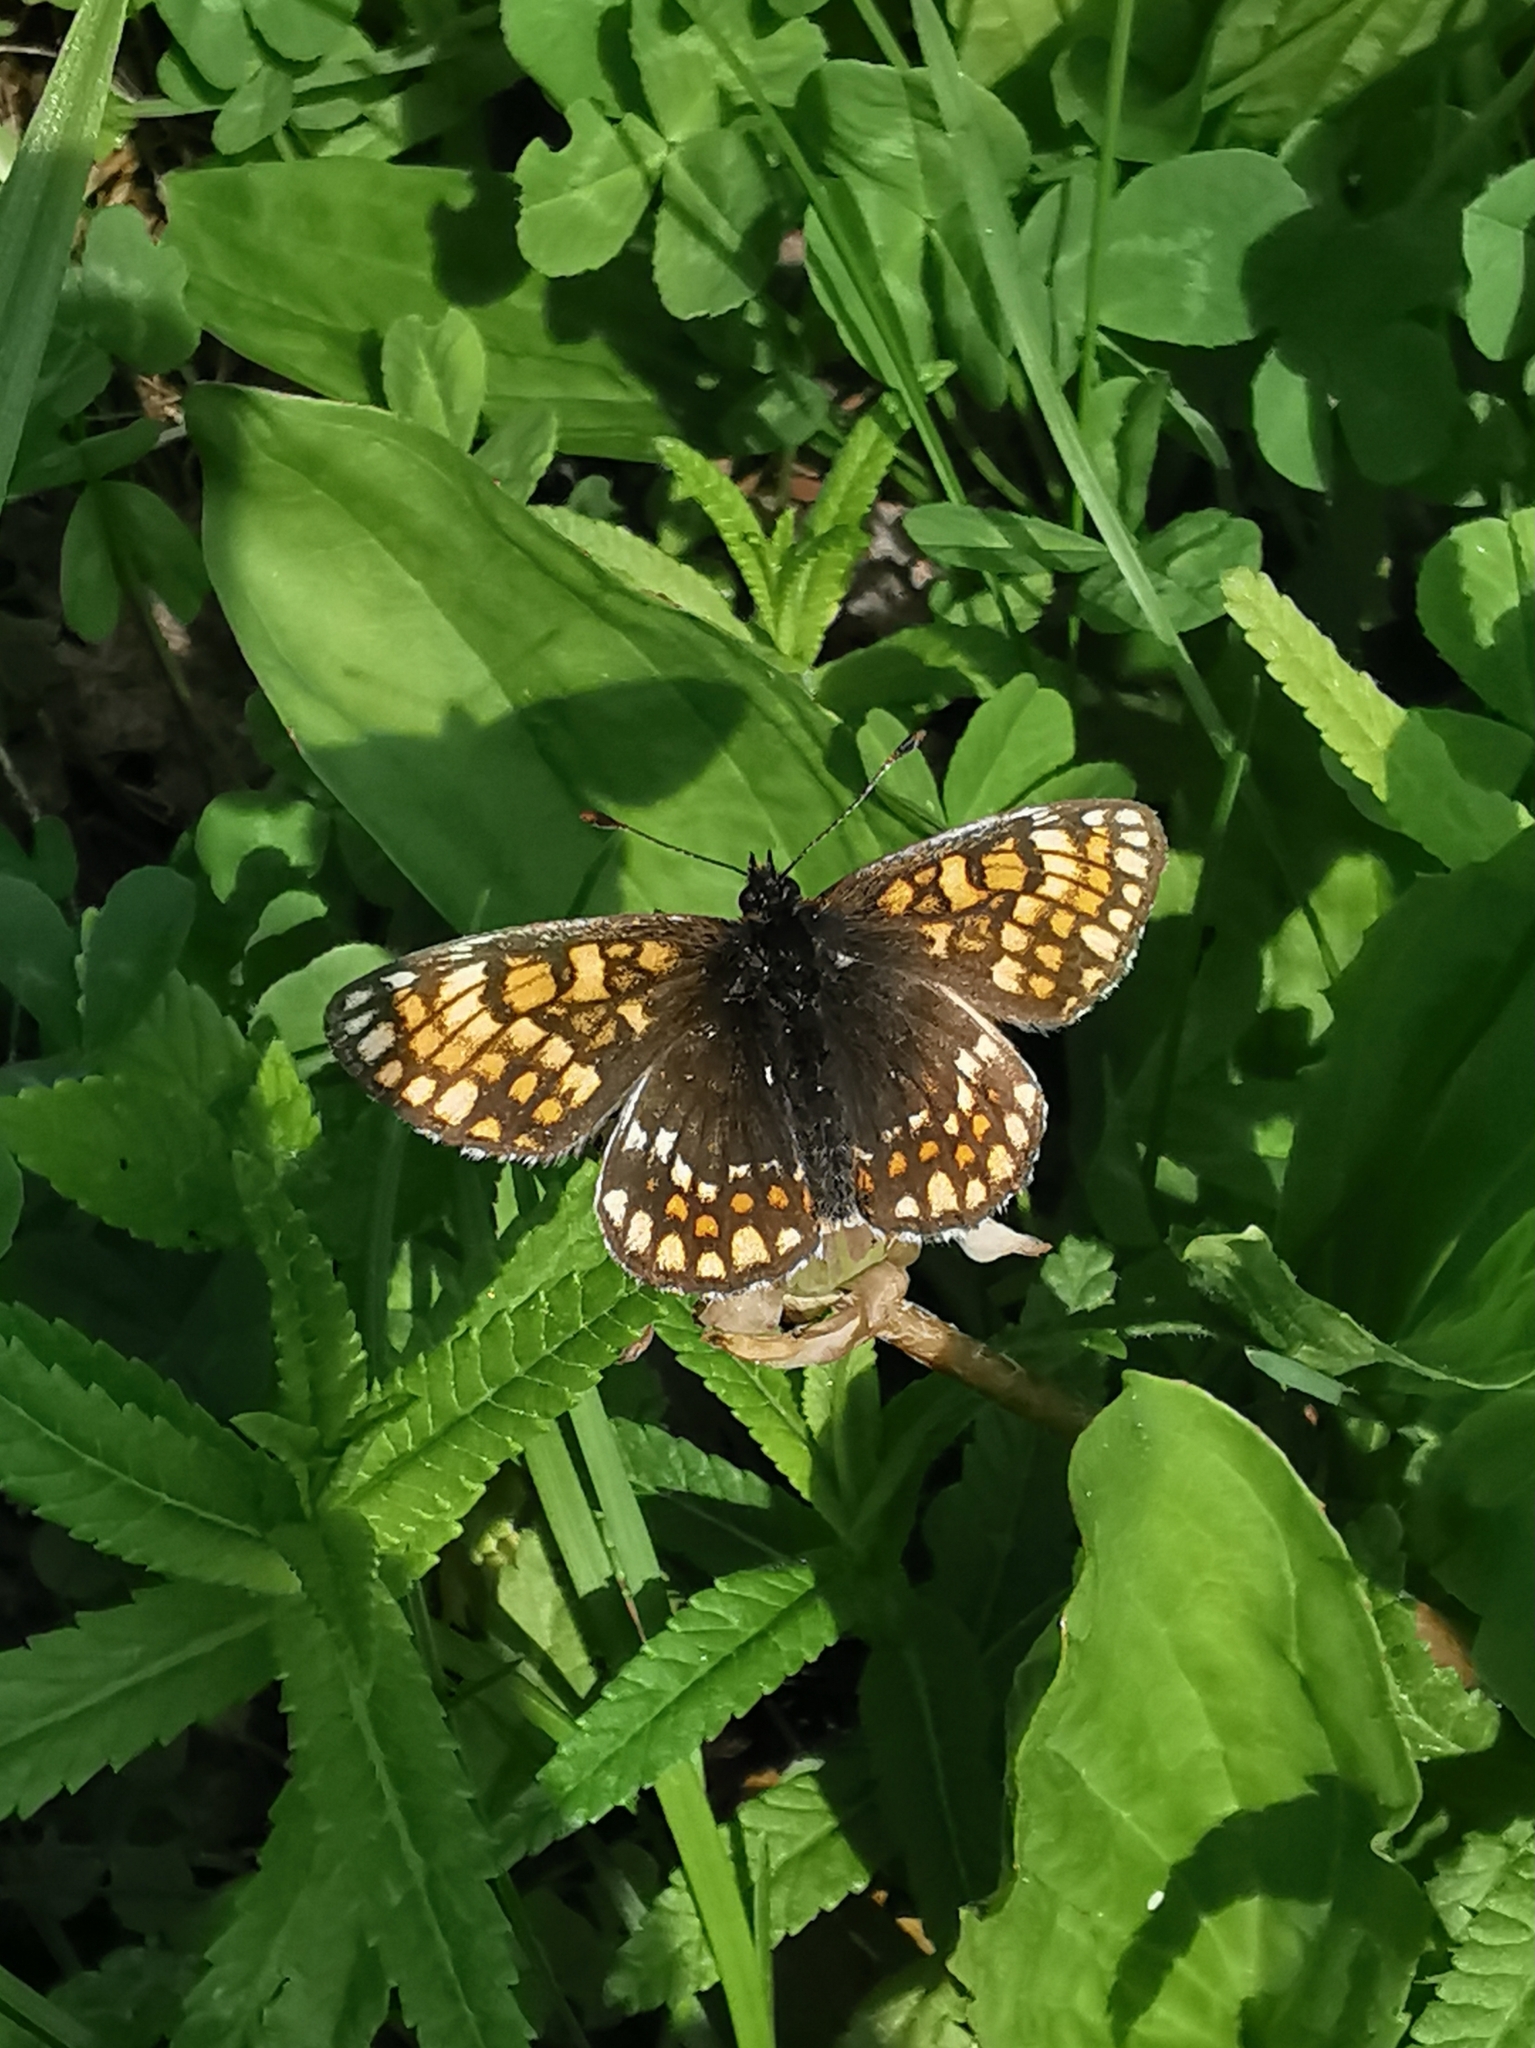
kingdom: Animalia
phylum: Arthropoda
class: Insecta
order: Lepidoptera
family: Nymphalidae
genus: Mellicta
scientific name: Mellicta menetriesi
